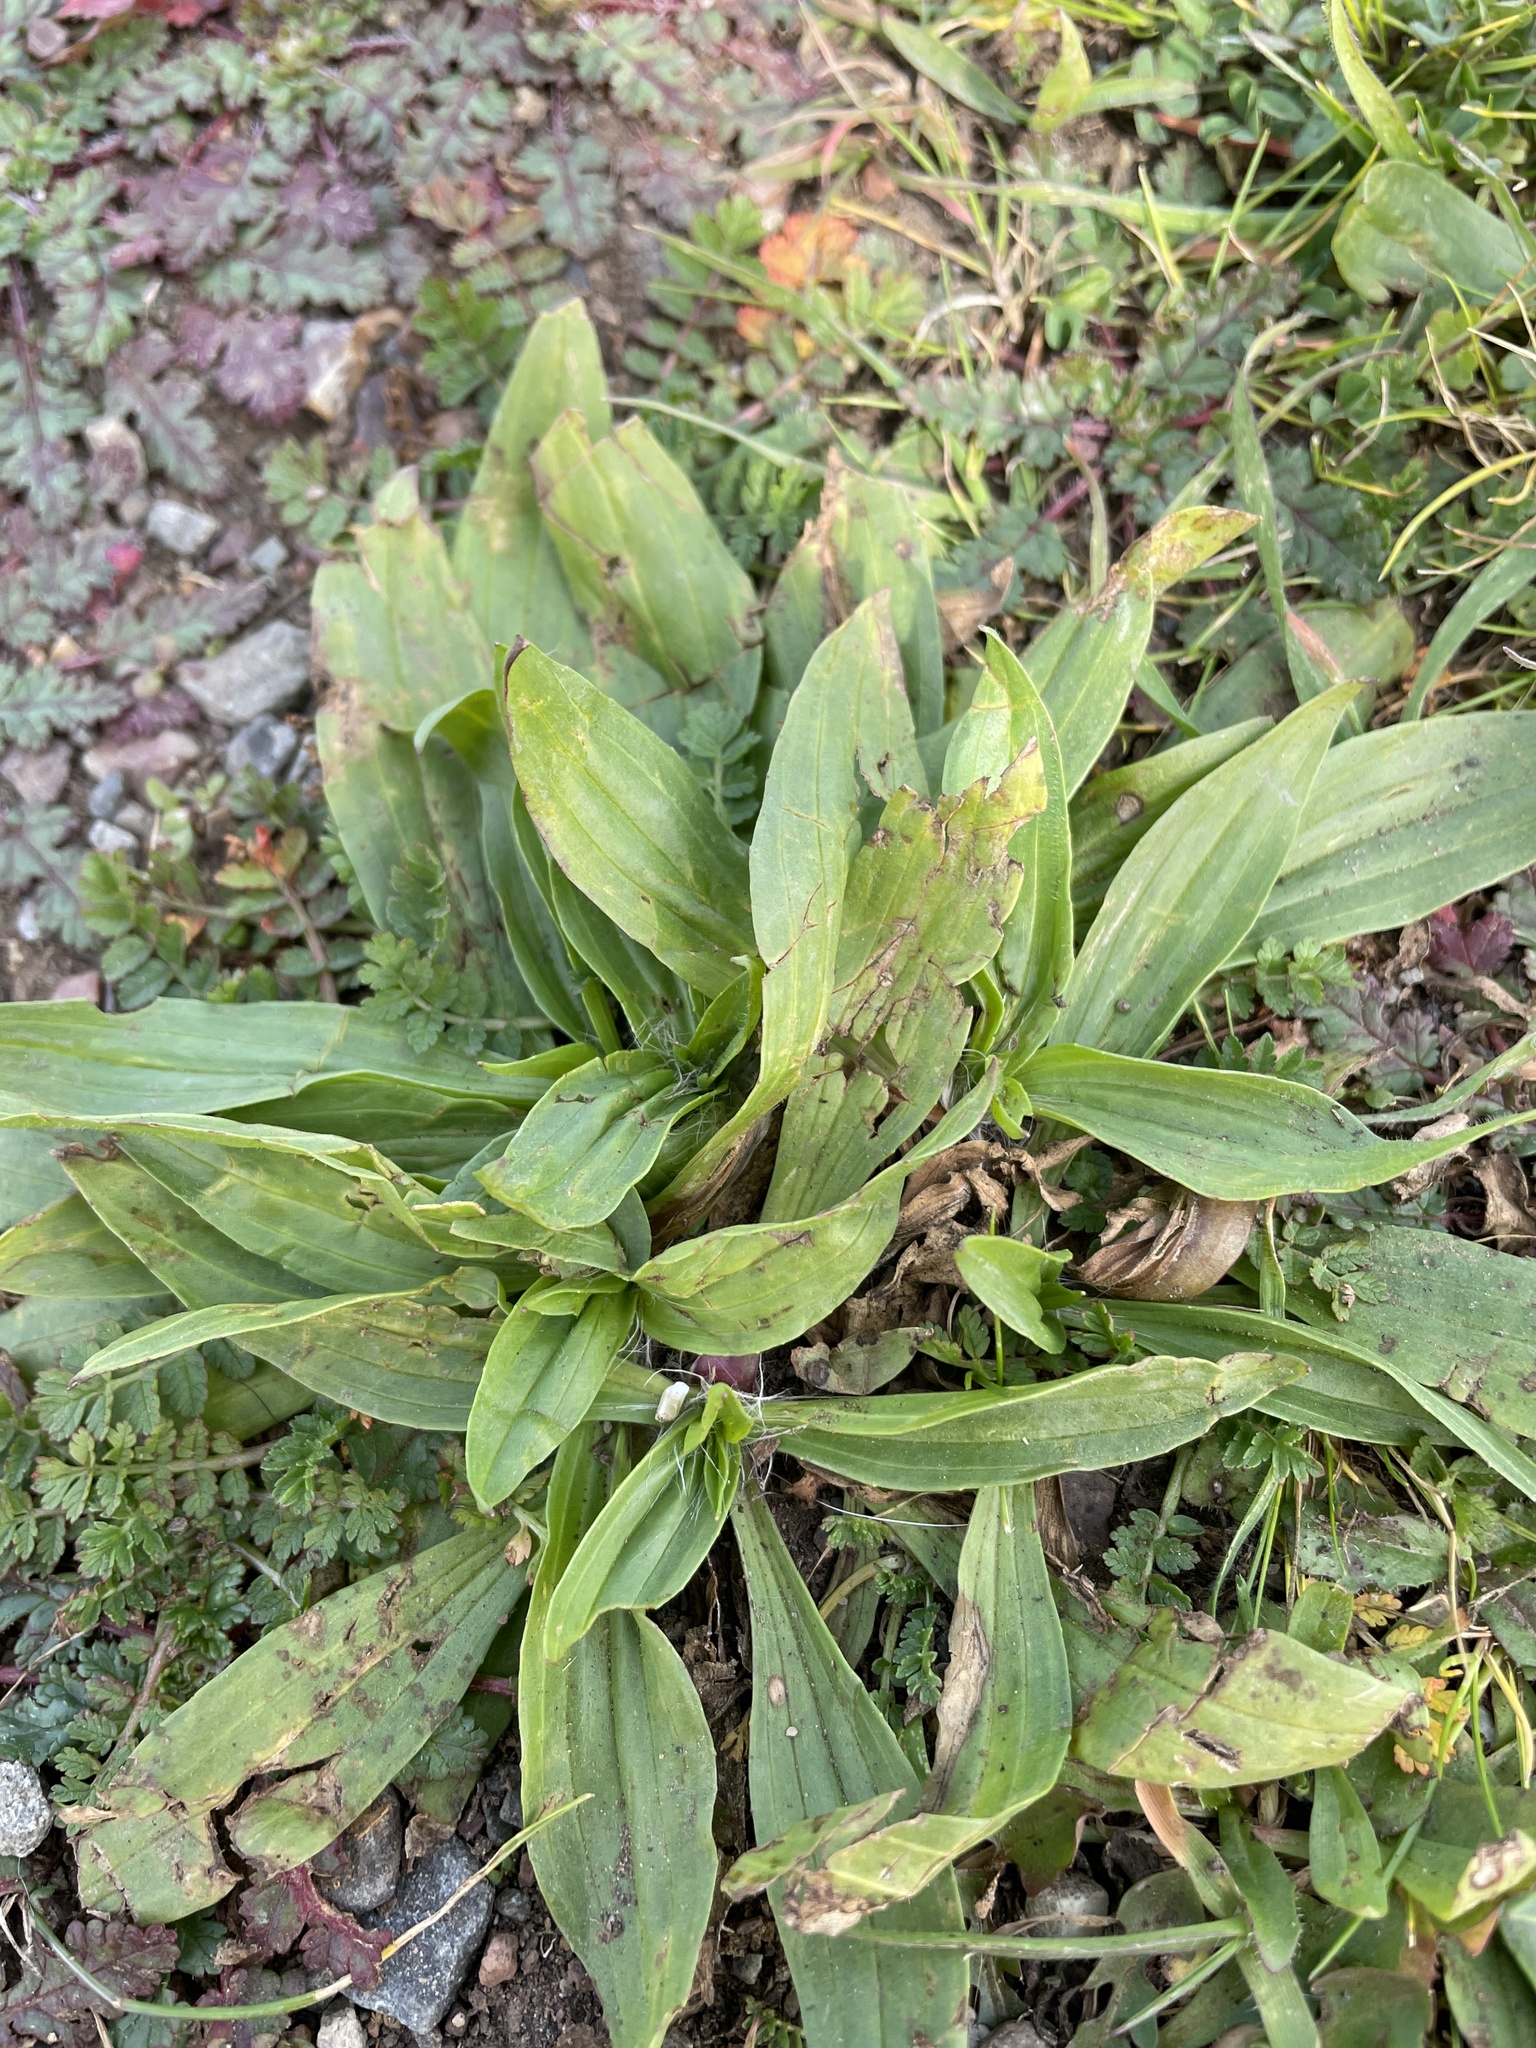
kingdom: Plantae
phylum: Tracheophyta
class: Magnoliopsida
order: Lamiales
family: Plantaginaceae
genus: Plantago
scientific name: Plantago lanceolata
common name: Ribwort plantain
